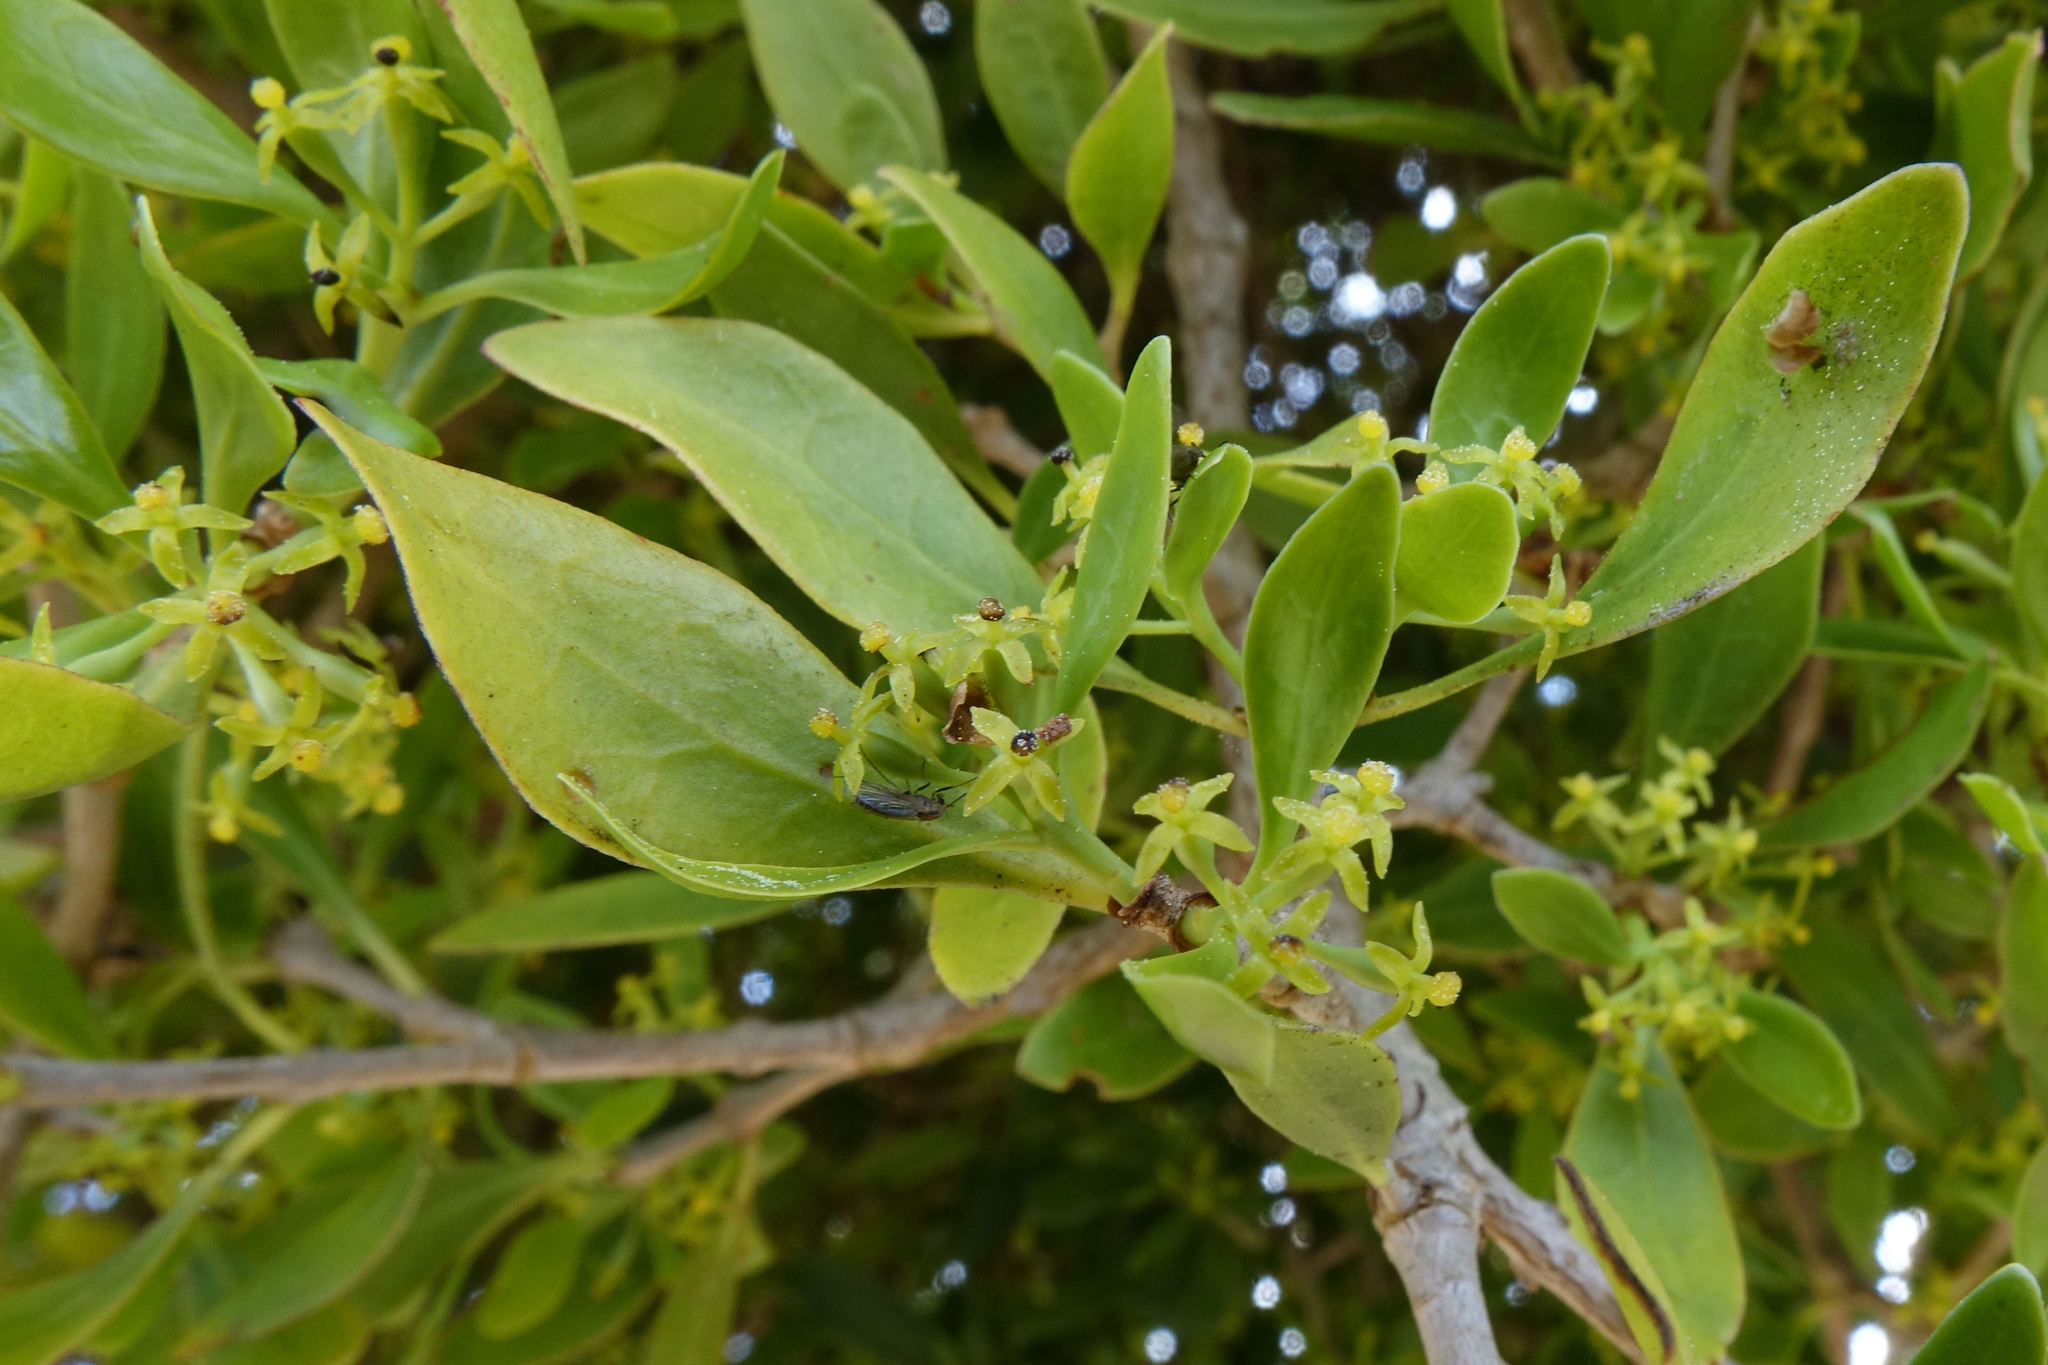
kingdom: Plantae
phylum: Tracheophyta
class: Magnoliopsida
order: Santalales
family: Loranthaceae
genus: Tupeia
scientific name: Tupeia antarctica
